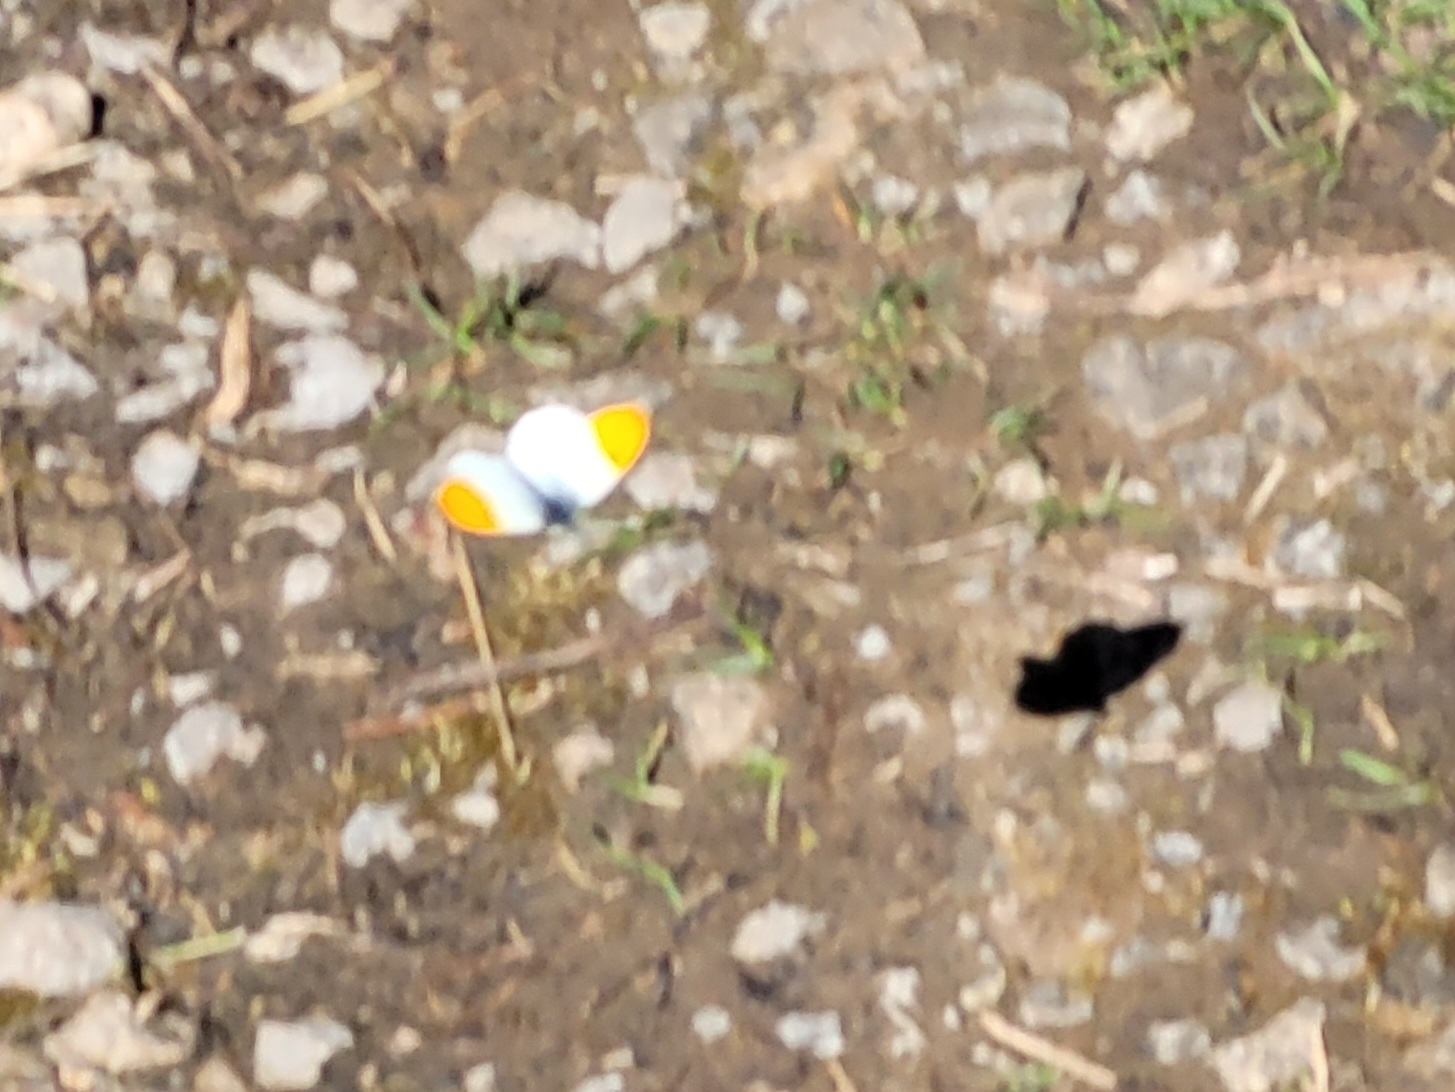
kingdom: Animalia
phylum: Arthropoda
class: Insecta
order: Lepidoptera
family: Pieridae
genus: Anthocharis
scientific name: Anthocharis cardamines
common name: Orange-tip
